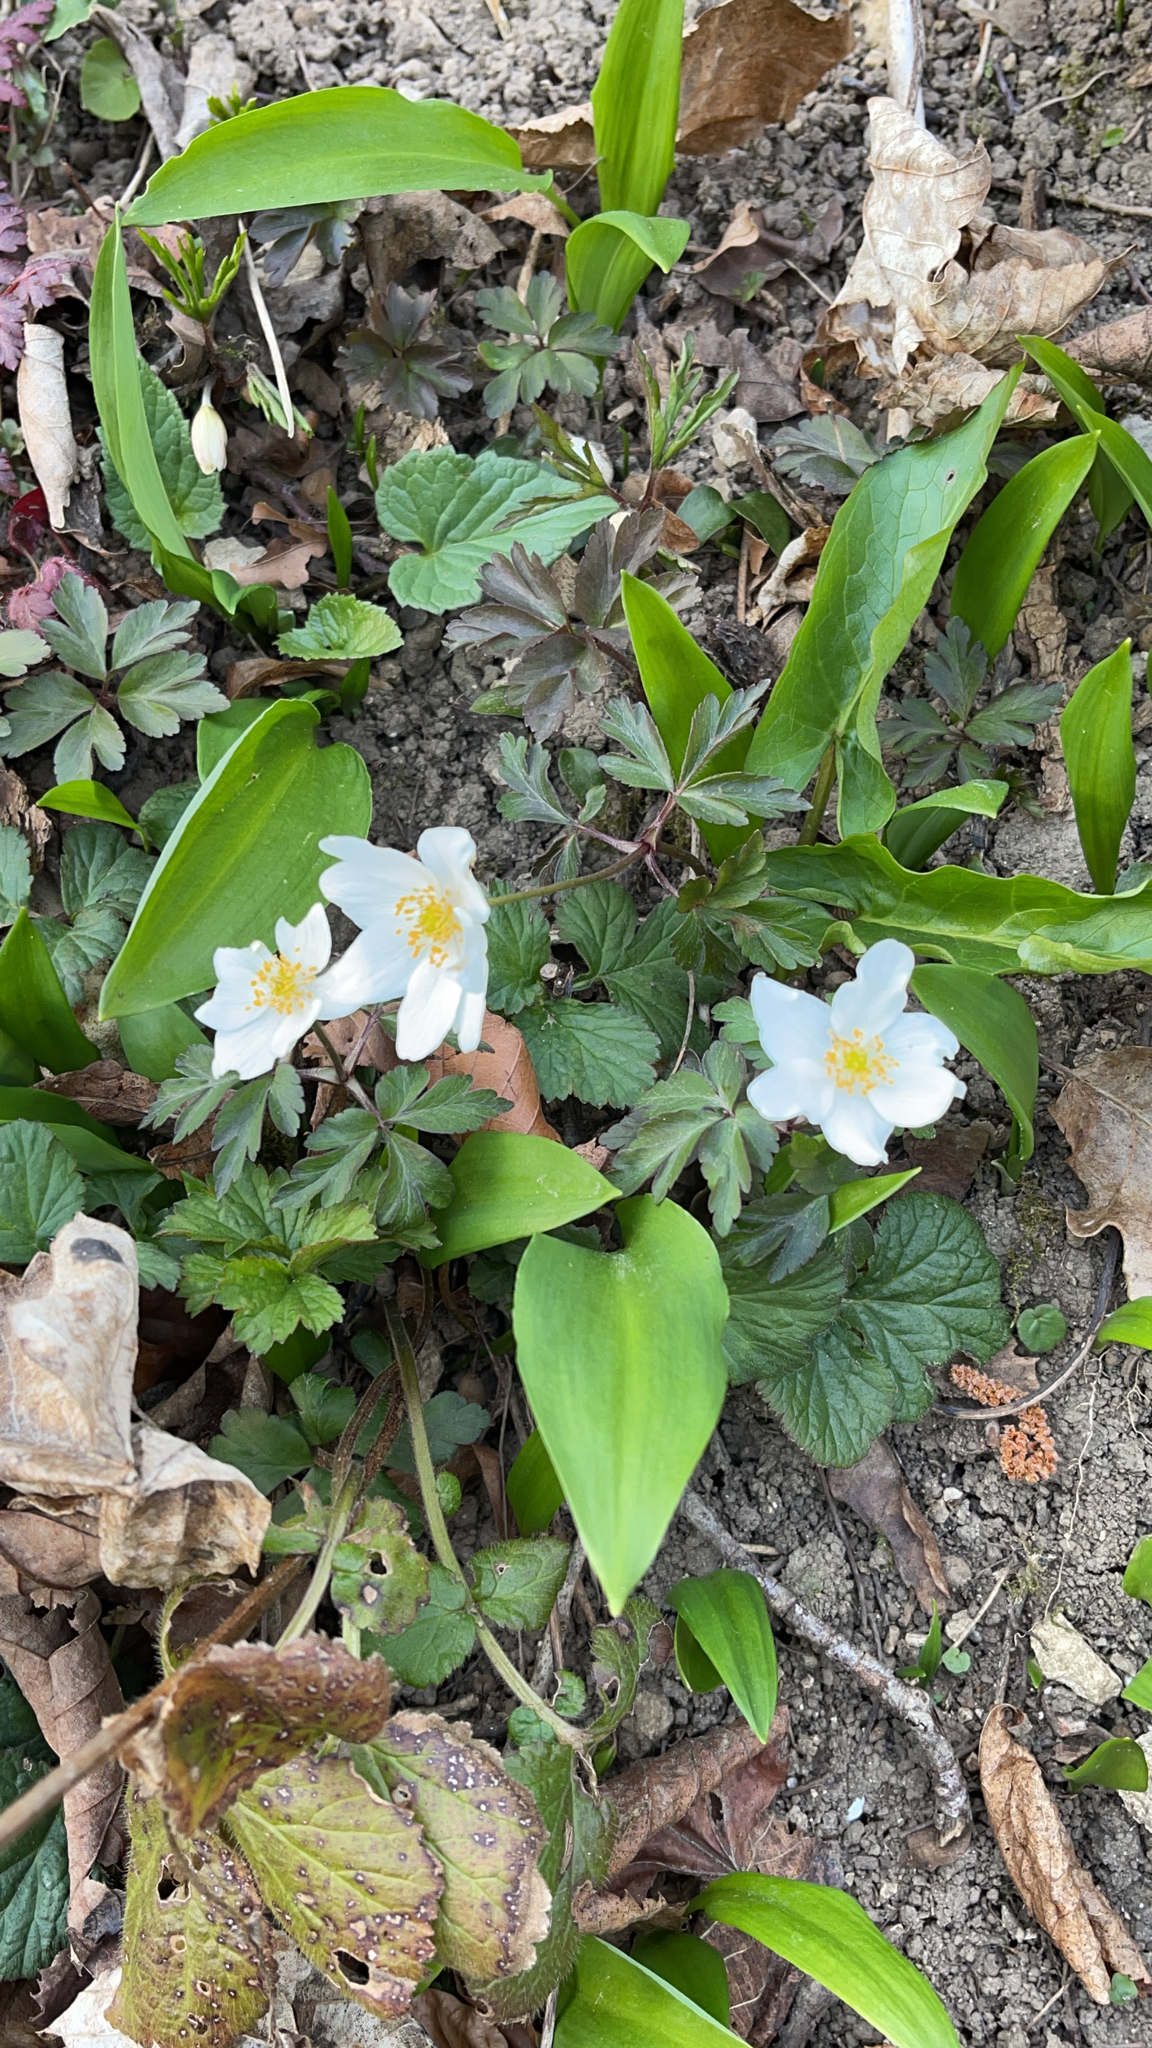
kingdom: Plantae
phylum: Tracheophyta
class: Magnoliopsida
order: Ranunculales
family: Ranunculaceae
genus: Anemone
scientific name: Anemone nemorosa
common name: Wood anemone
